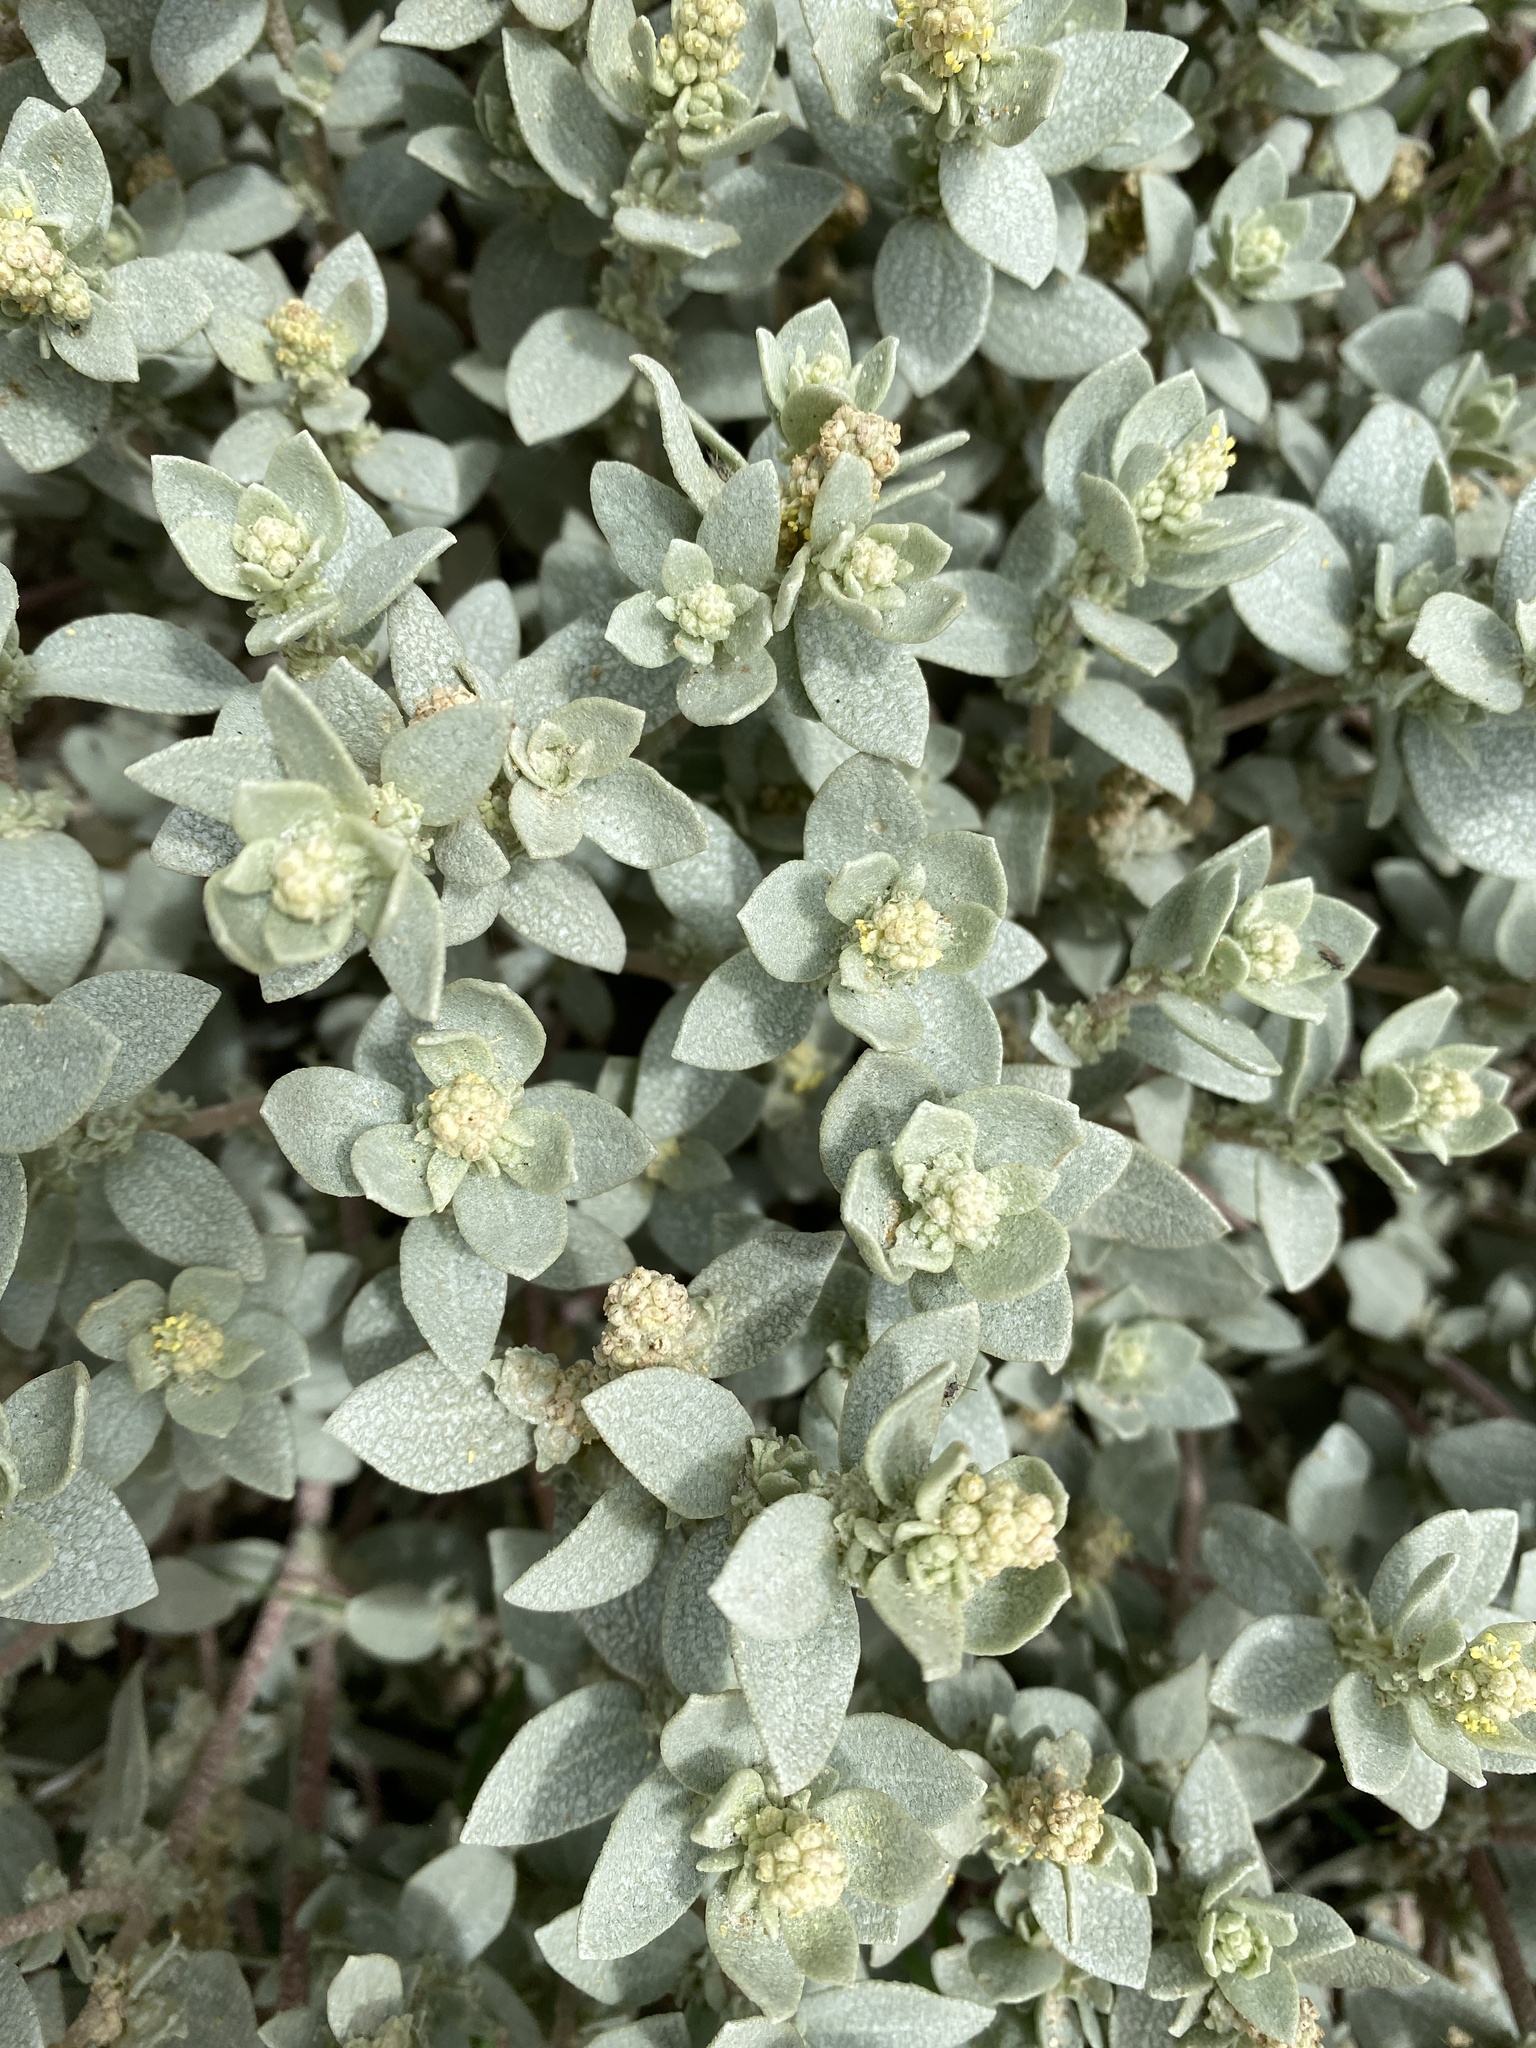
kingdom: Plantae
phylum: Tracheophyta
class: Magnoliopsida
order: Caryophyllales
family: Amaranthaceae
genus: Atriplex
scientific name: Atriplex leucophylla
